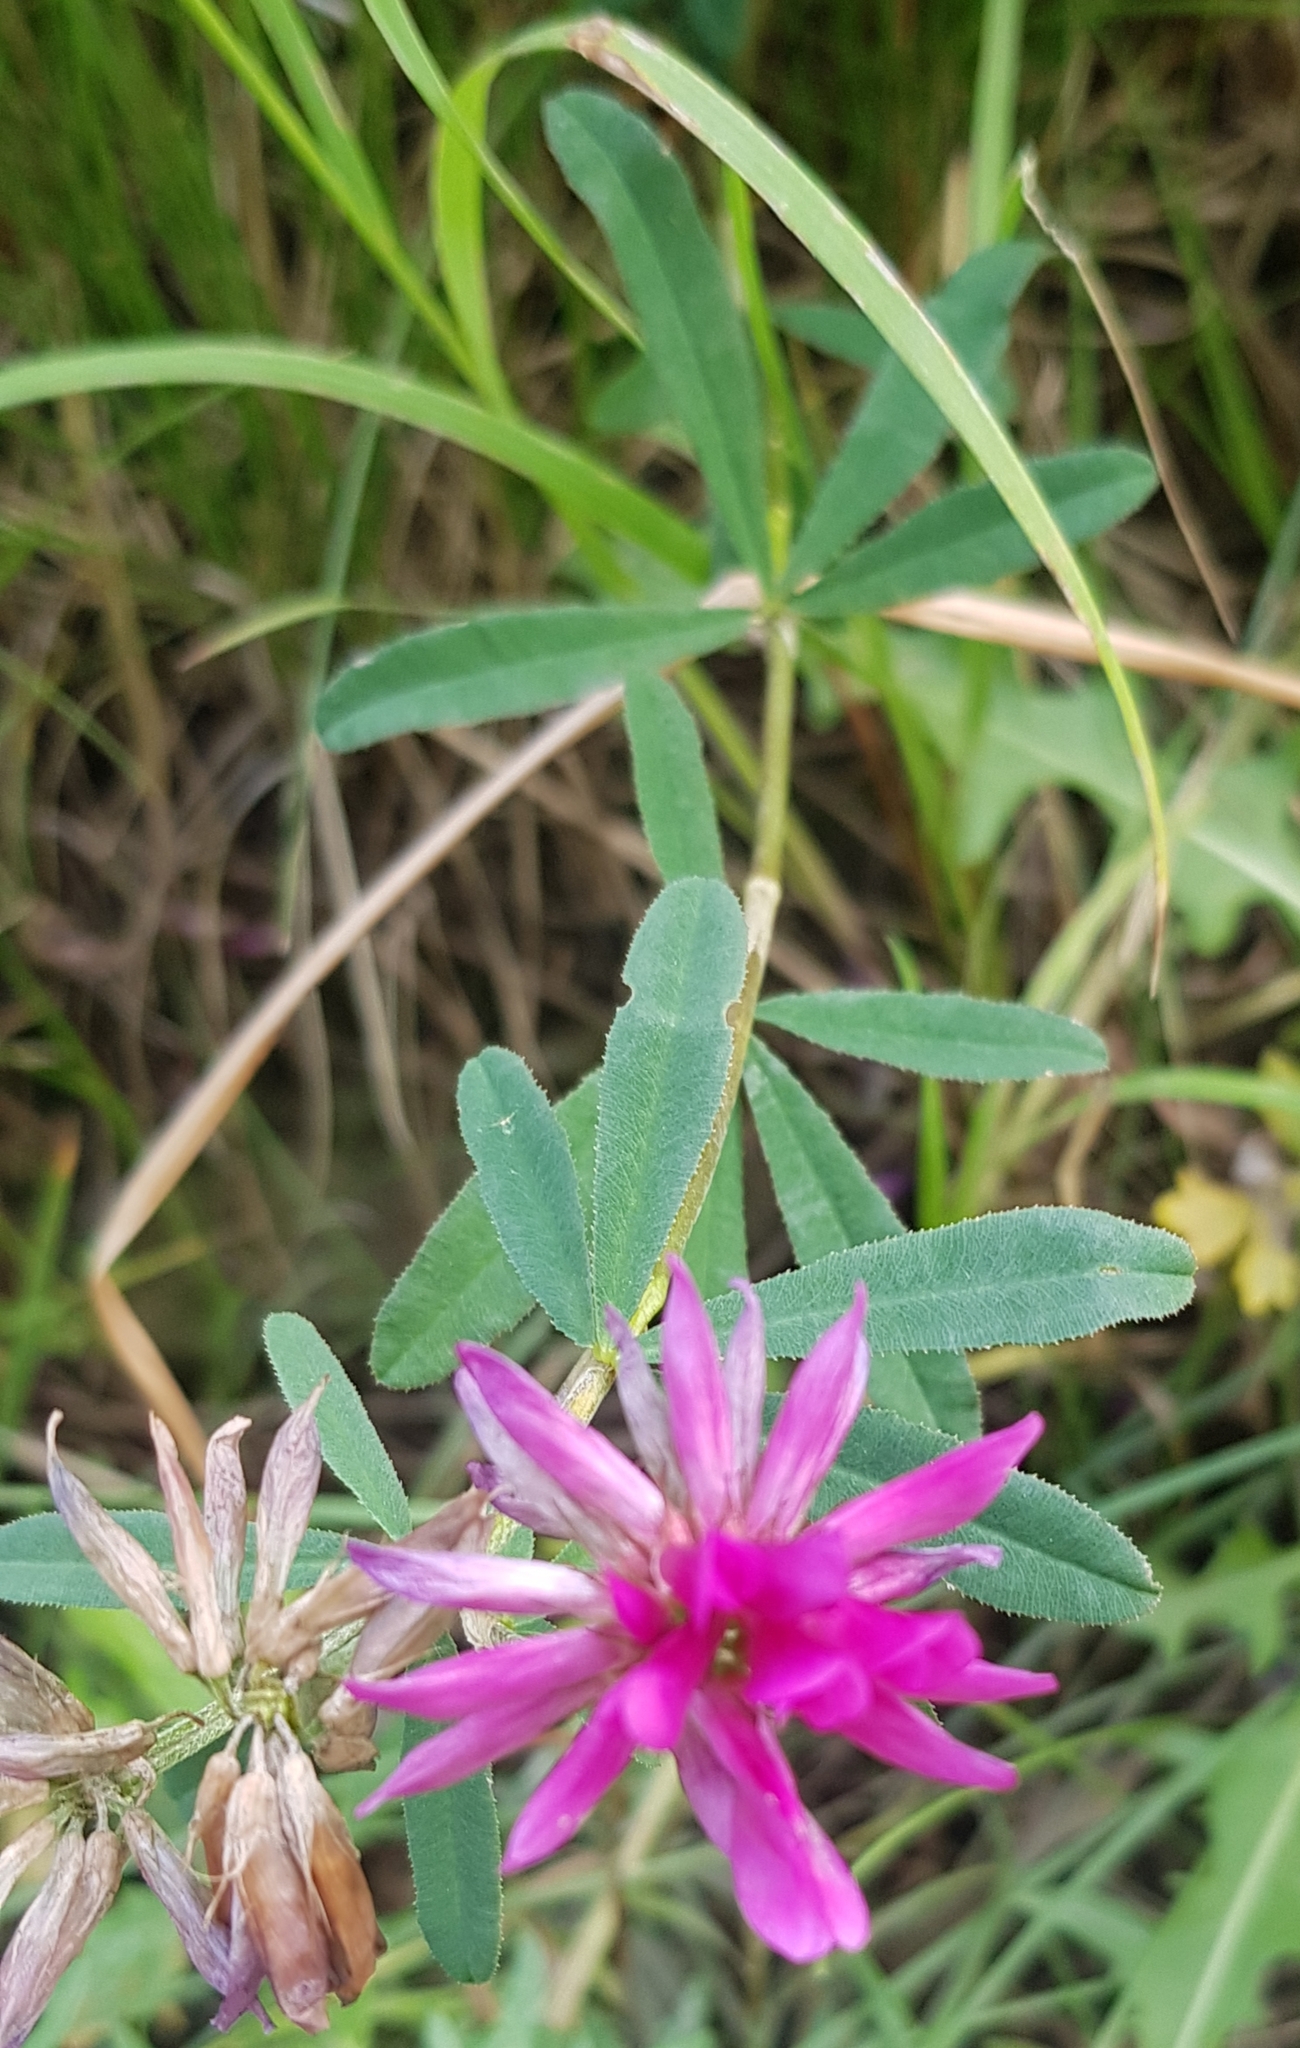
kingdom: Plantae
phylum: Tracheophyta
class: Magnoliopsida
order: Fabales
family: Fabaceae
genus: Trifolium
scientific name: Trifolium lupinaster
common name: Lupine clover
